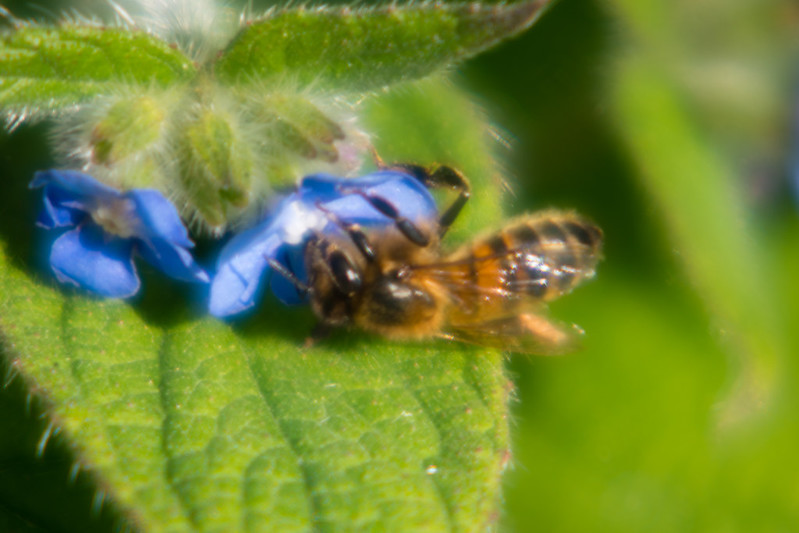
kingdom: Animalia
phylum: Arthropoda
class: Insecta
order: Hymenoptera
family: Apidae
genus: Apis
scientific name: Apis mellifera
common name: Honey bee
